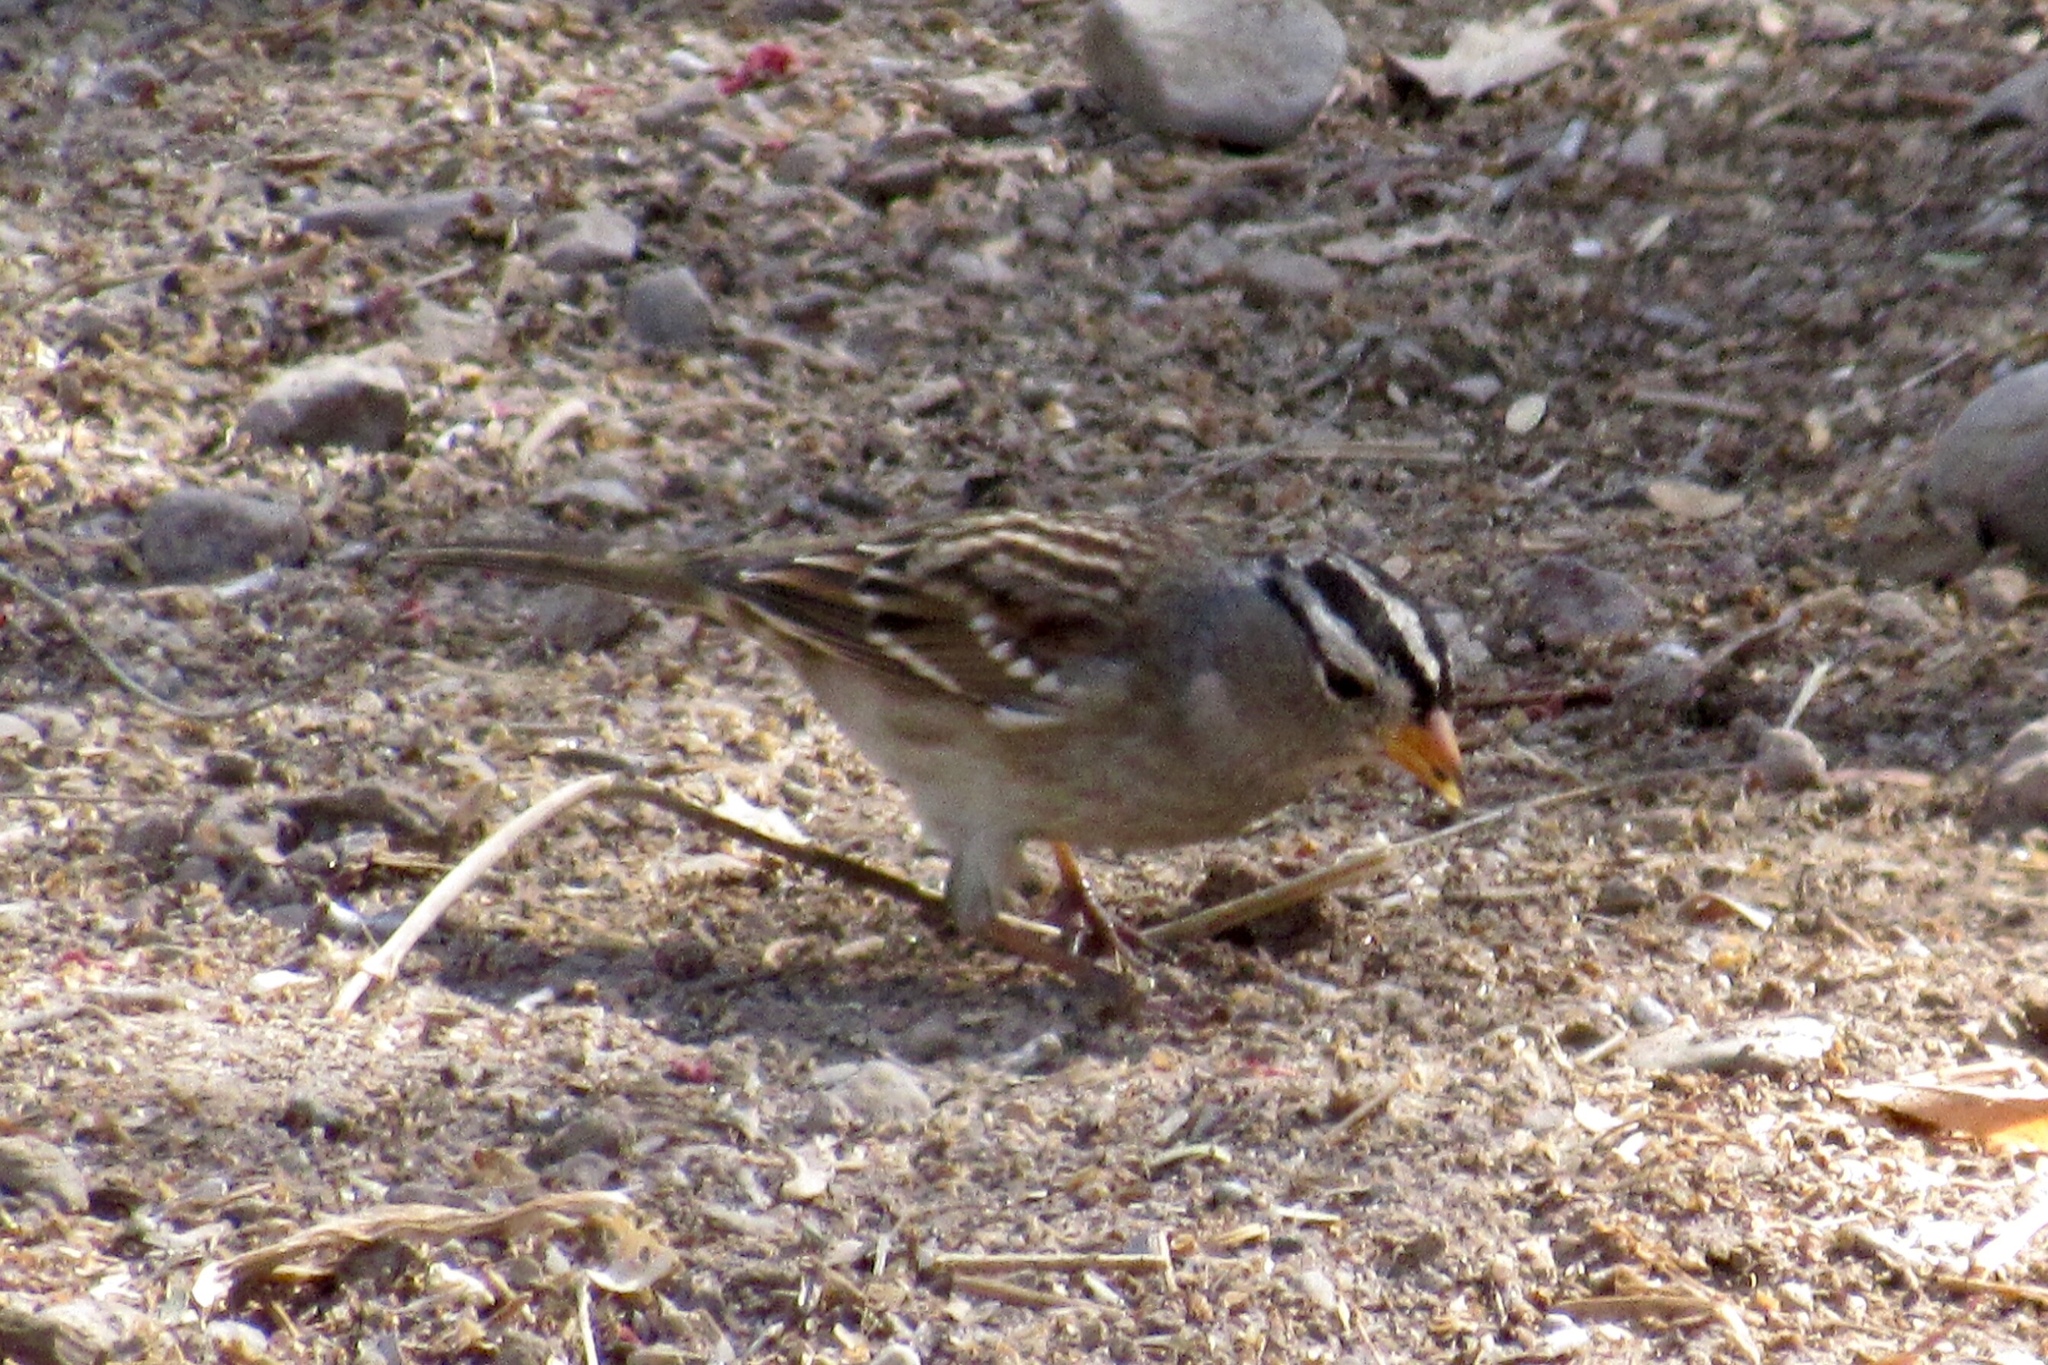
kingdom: Animalia
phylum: Chordata
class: Aves
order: Passeriformes
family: Passerellidae
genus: Zonotrichia
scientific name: Zonotrichia leucophrys
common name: White-crowned sparrow
